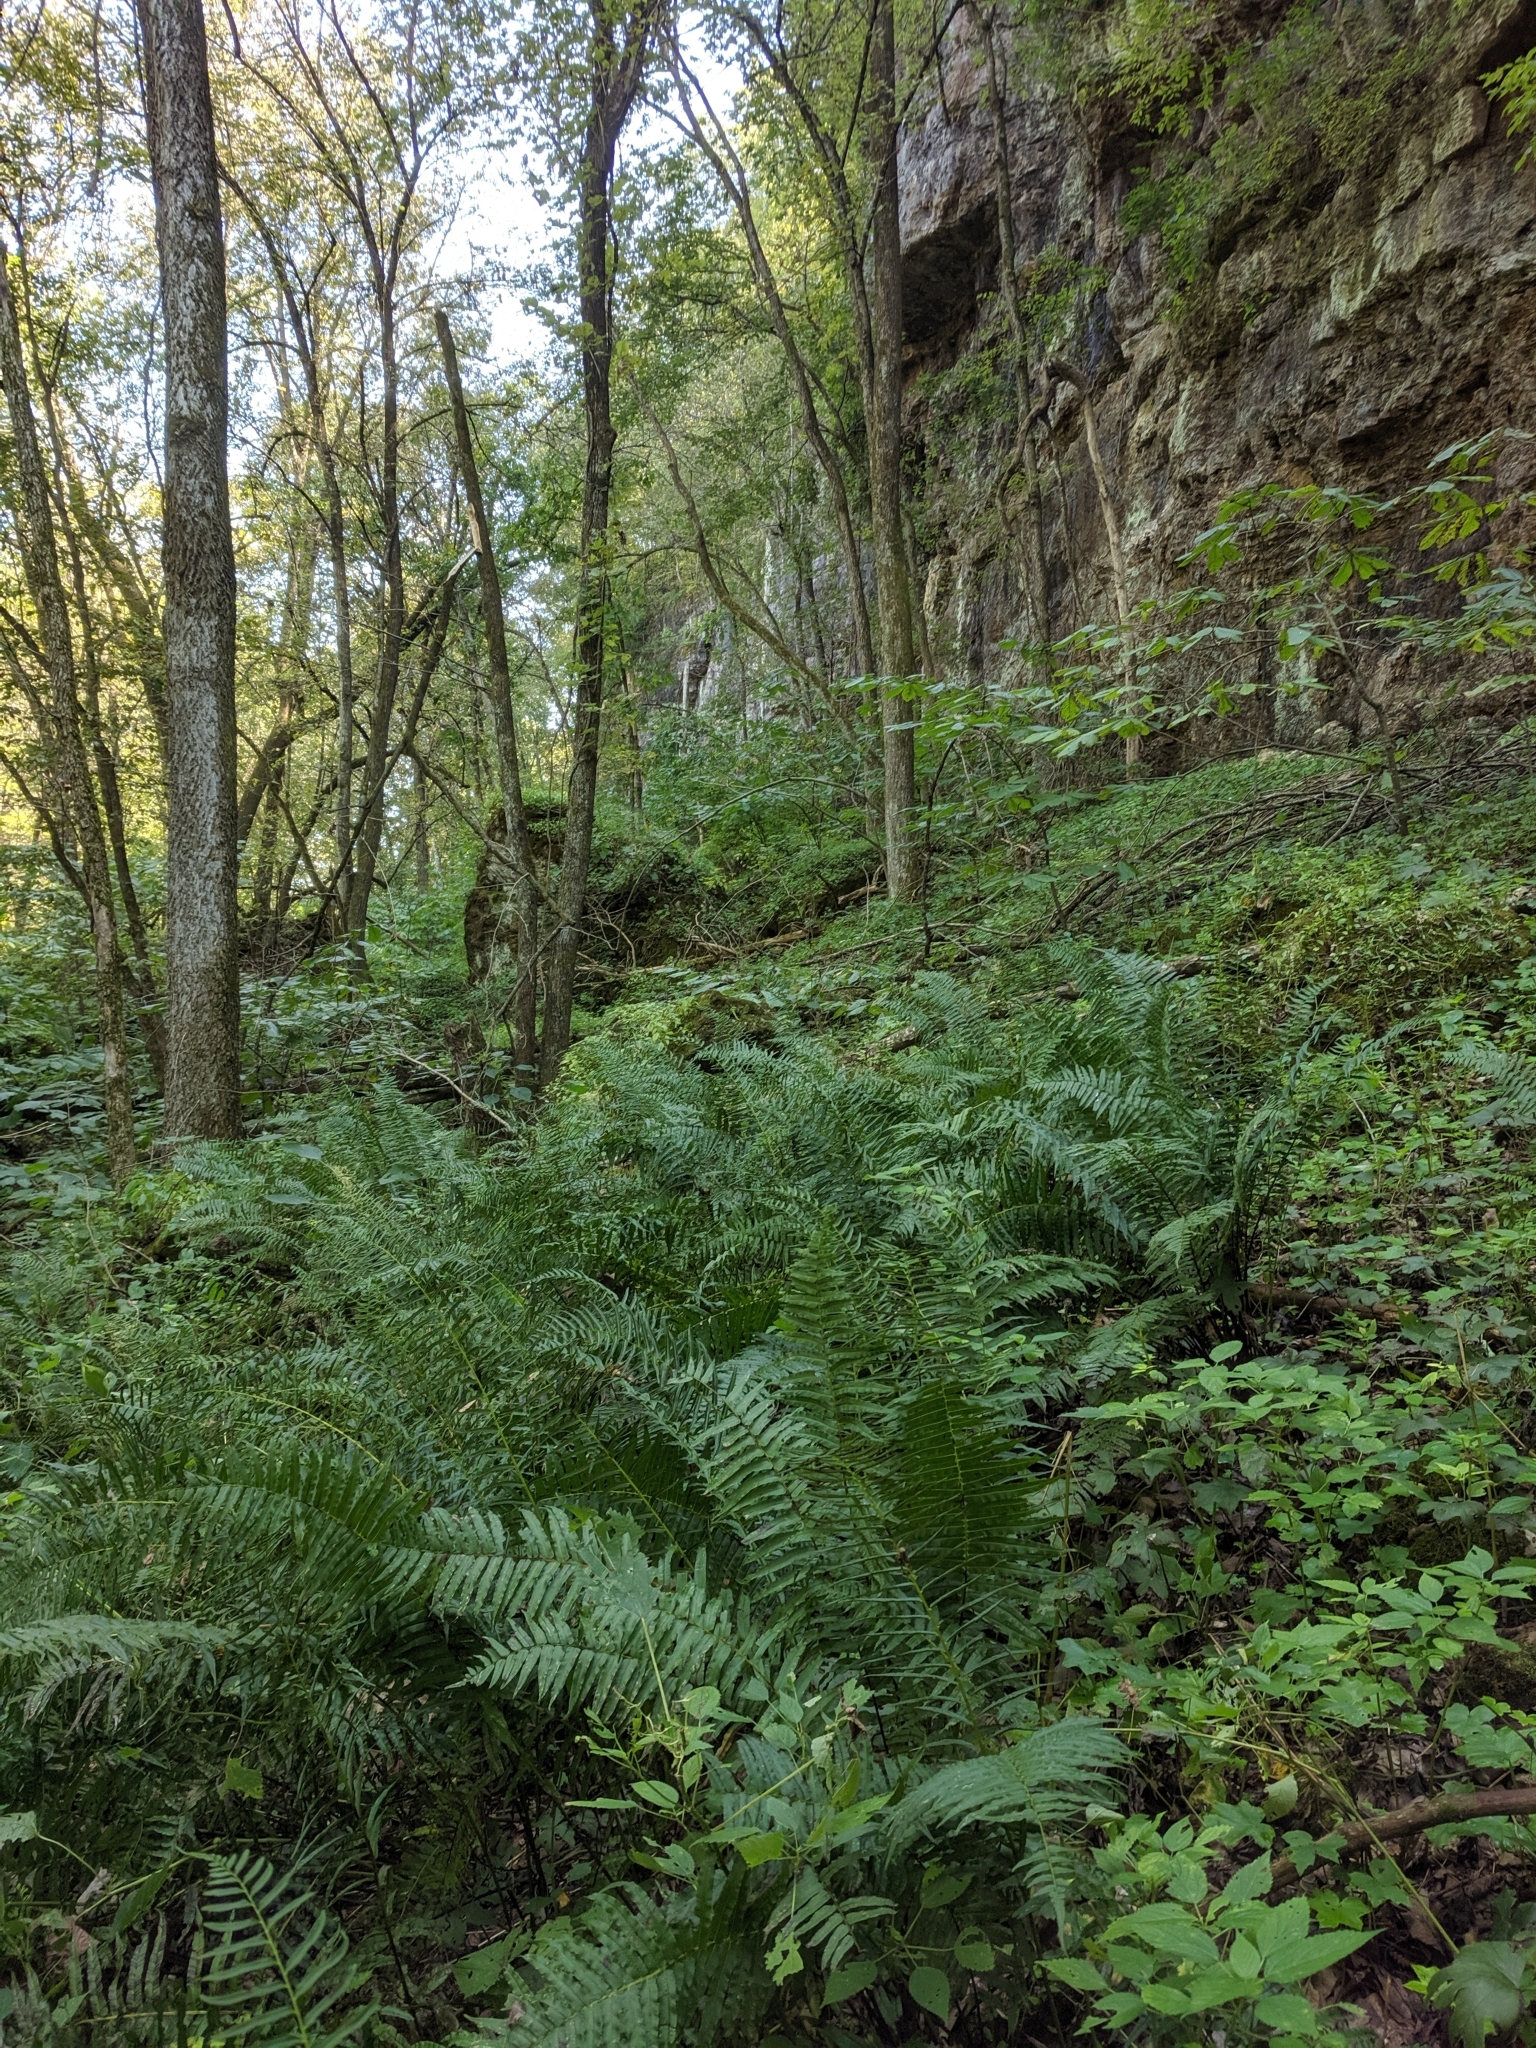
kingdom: Plantae
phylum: Tracheophyta
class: Polypodiopsida
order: Polypodiales
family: Diplaziopsidaceae
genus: Homalosorus
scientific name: Homalosorus pycnocarpos
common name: Glade fern
